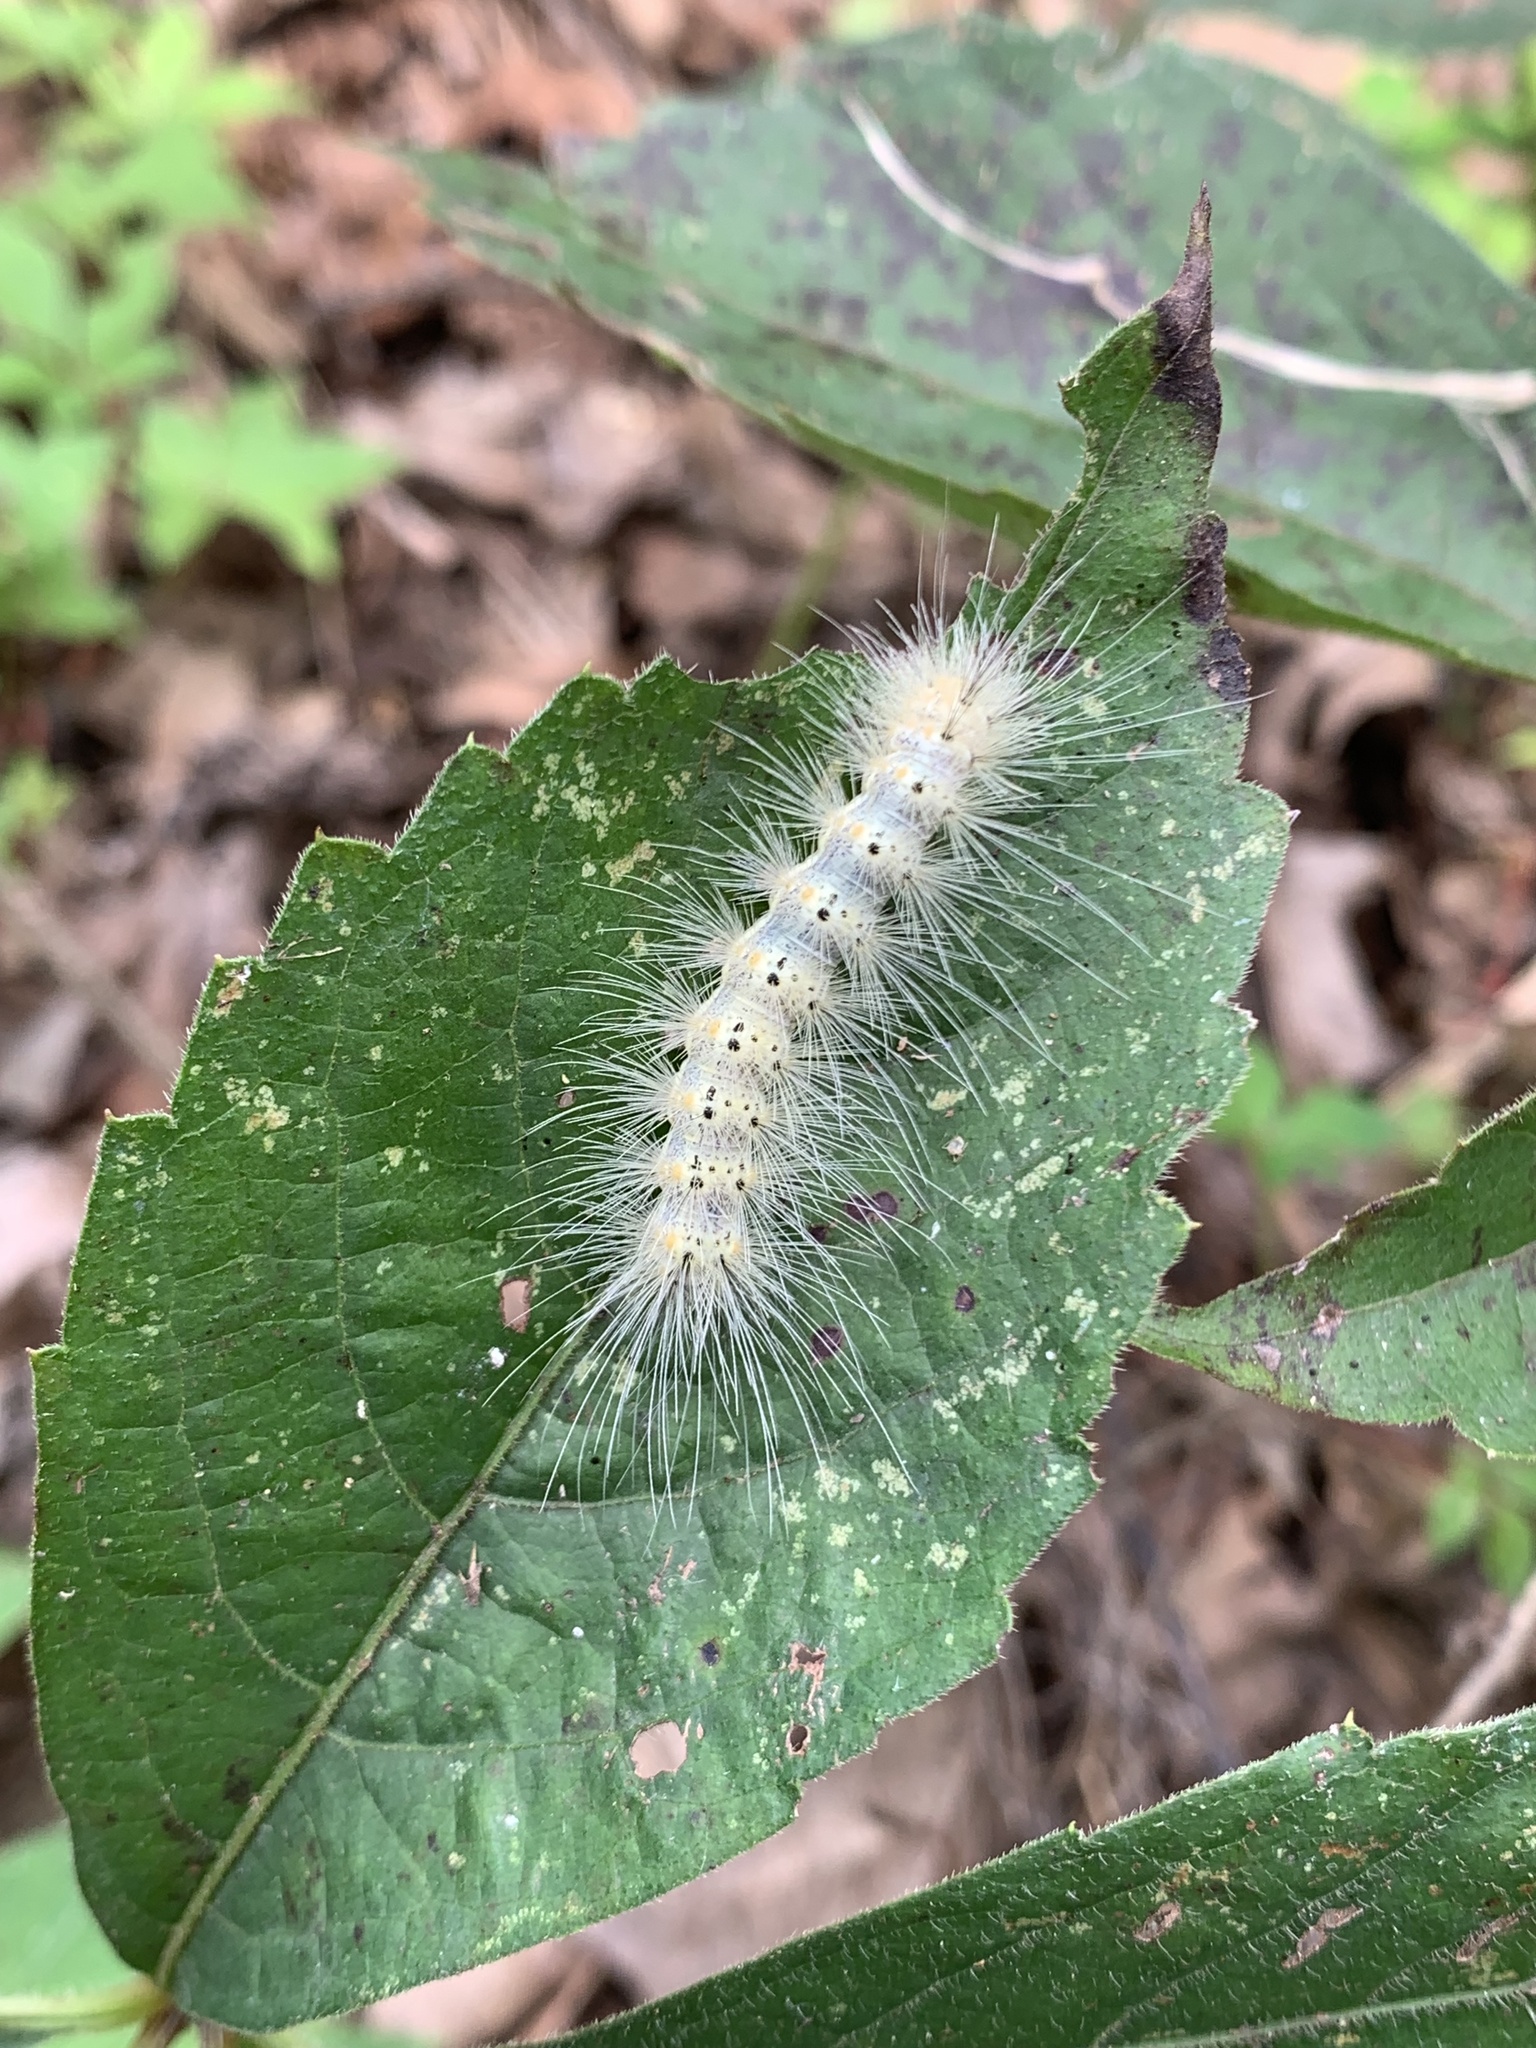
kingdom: Animalia
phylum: Arthropoda
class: Insecta
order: Lepidoptera
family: Erebidae
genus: Hyphantria
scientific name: Hyphantria cunea
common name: American white moth
